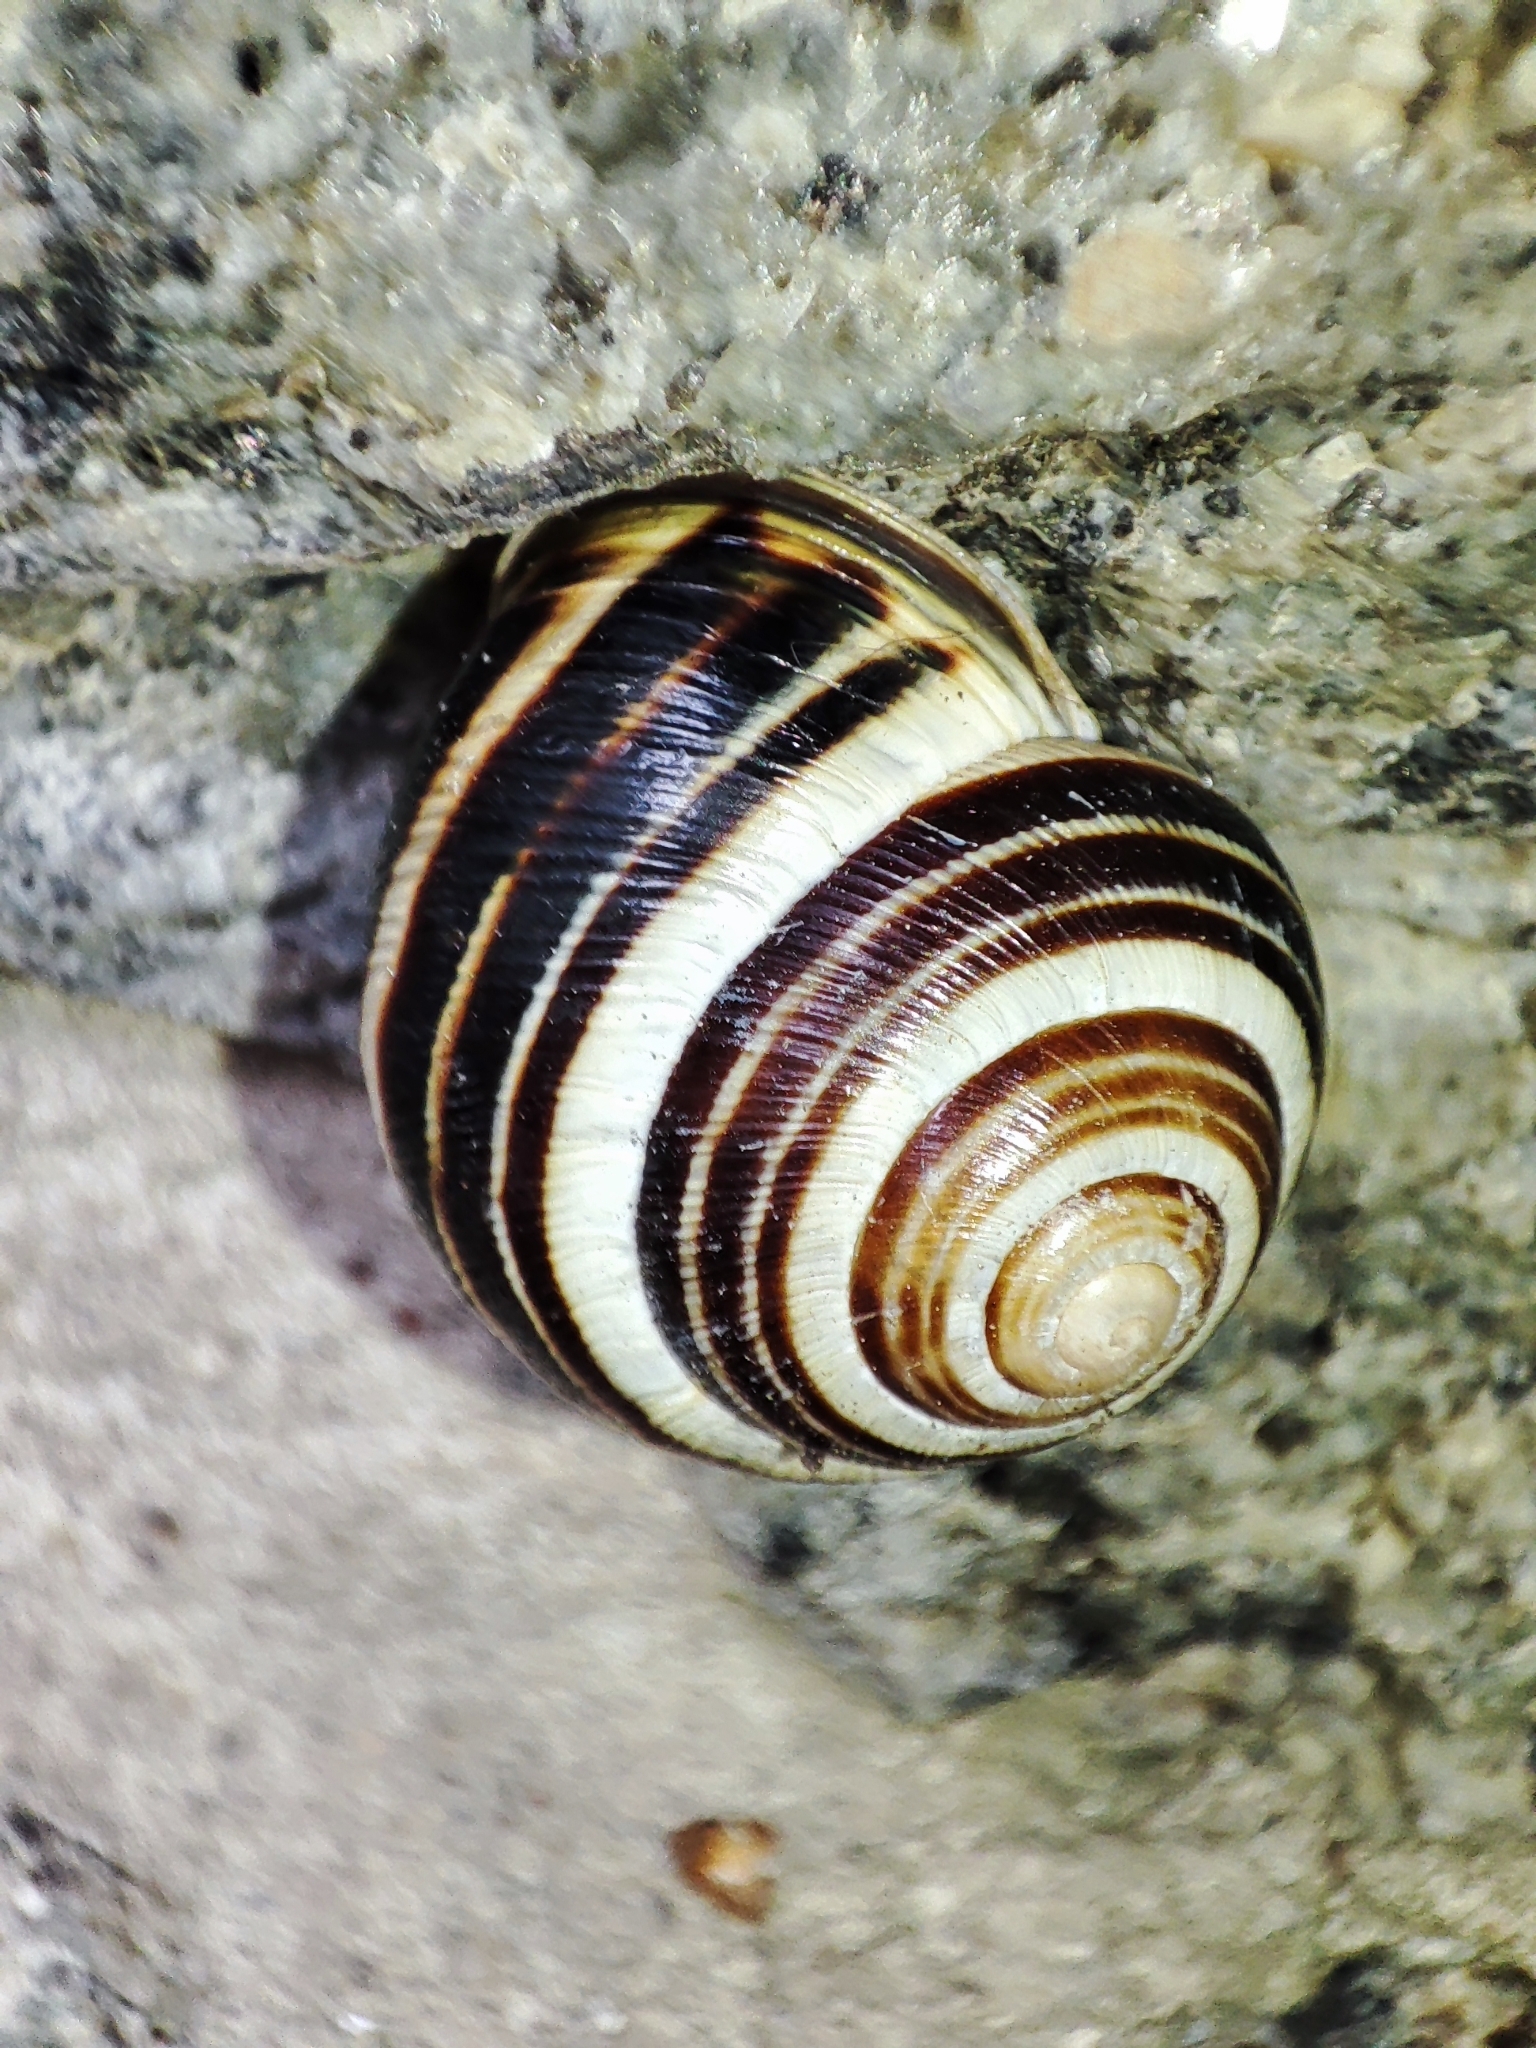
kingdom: Animalia
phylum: Mollusca
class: Gastropoda
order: Stylommatophora
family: Helicidae
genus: Caucasotachea
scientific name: Caucasotachea vindobonensis
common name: European helicid land snail
